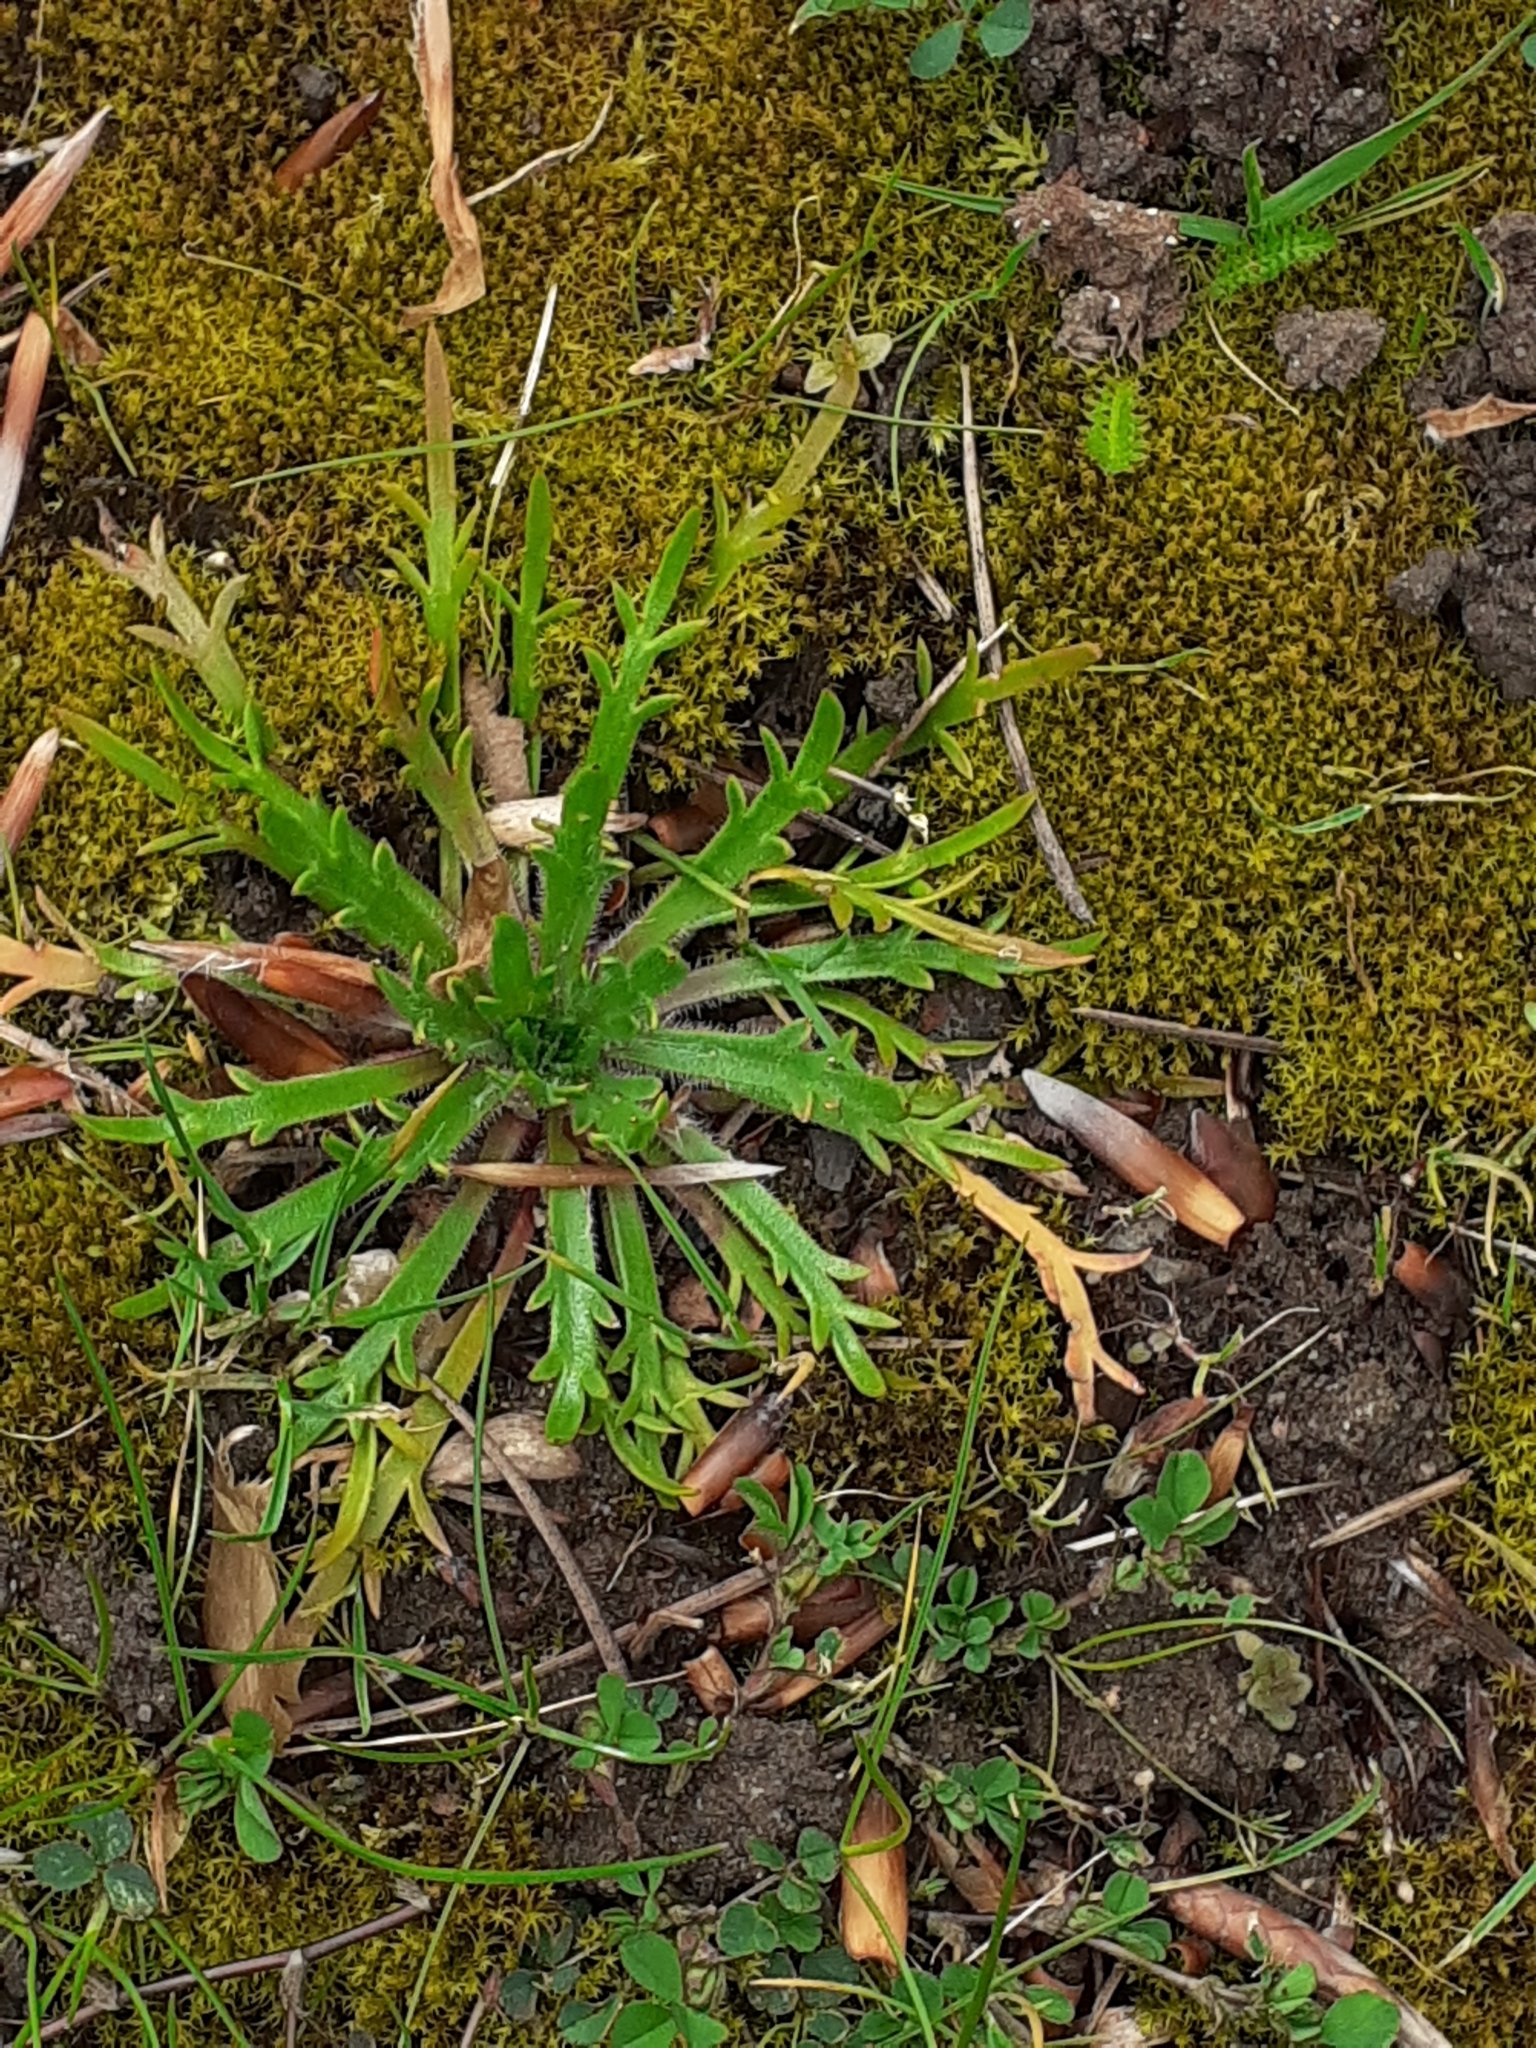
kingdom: Plantae
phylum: Tracheophyta
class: Magnoliopsida
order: Lamiales
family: Plantaginaceae
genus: Plantago
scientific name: Plantago coronopus
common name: Buck's-horn plantain
